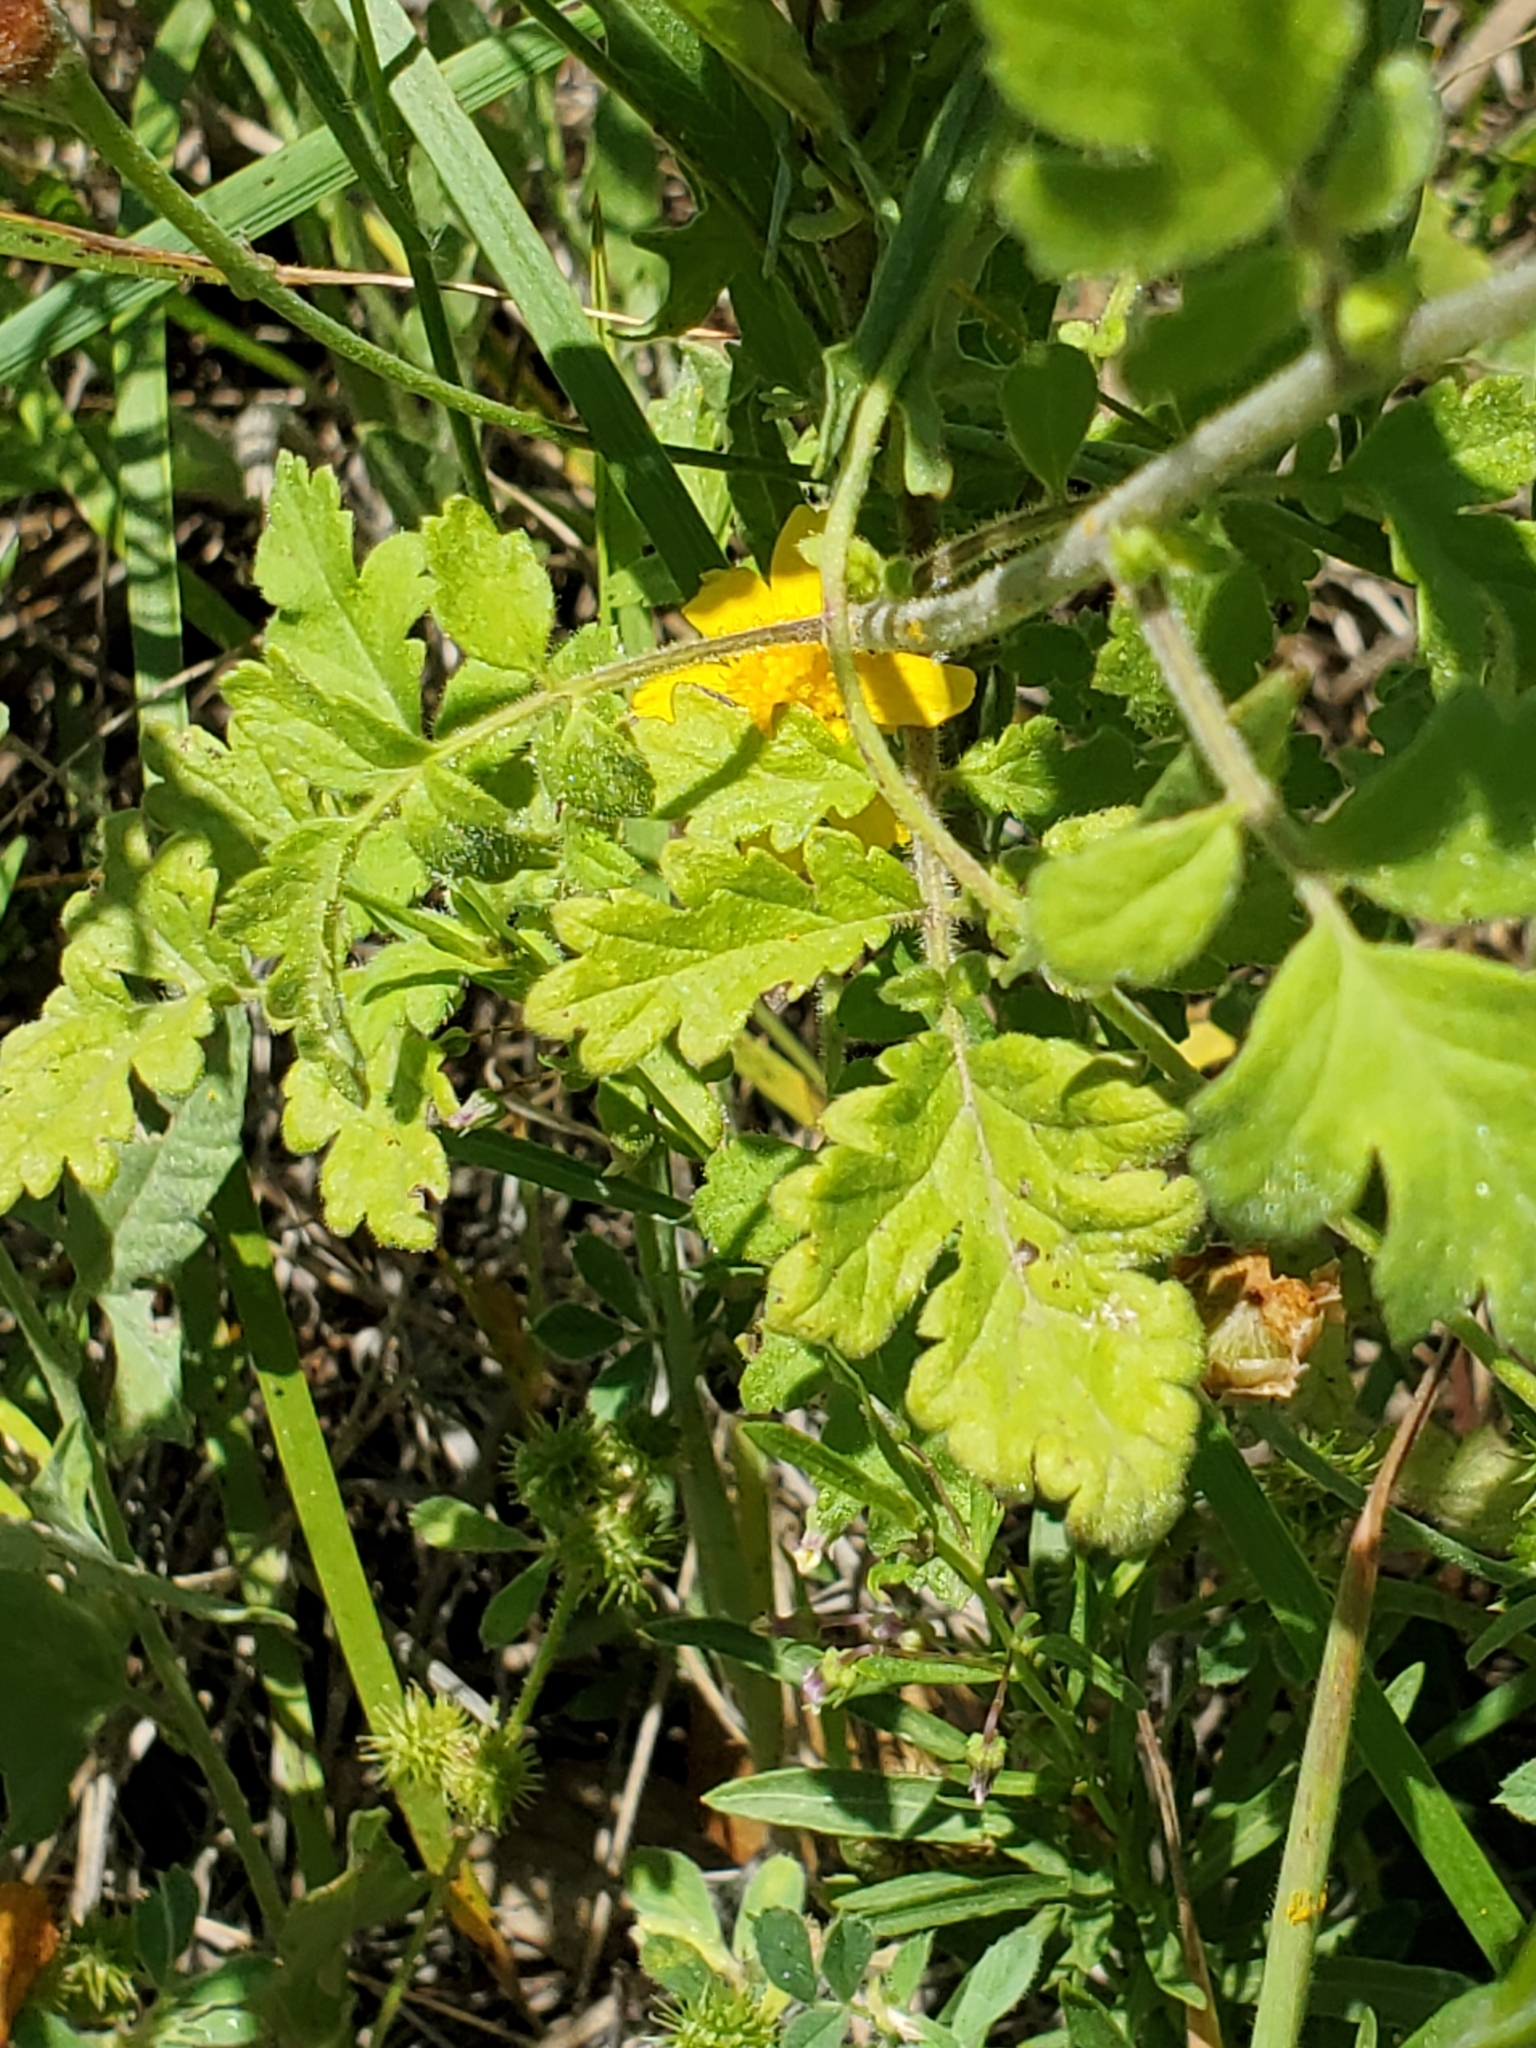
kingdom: Plantae
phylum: Tracheophyta
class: Magnoliopsida
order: Boraginales
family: Hydrophyllaceae
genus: Phacelia
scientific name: Phacelia congesta
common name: Blue curls
